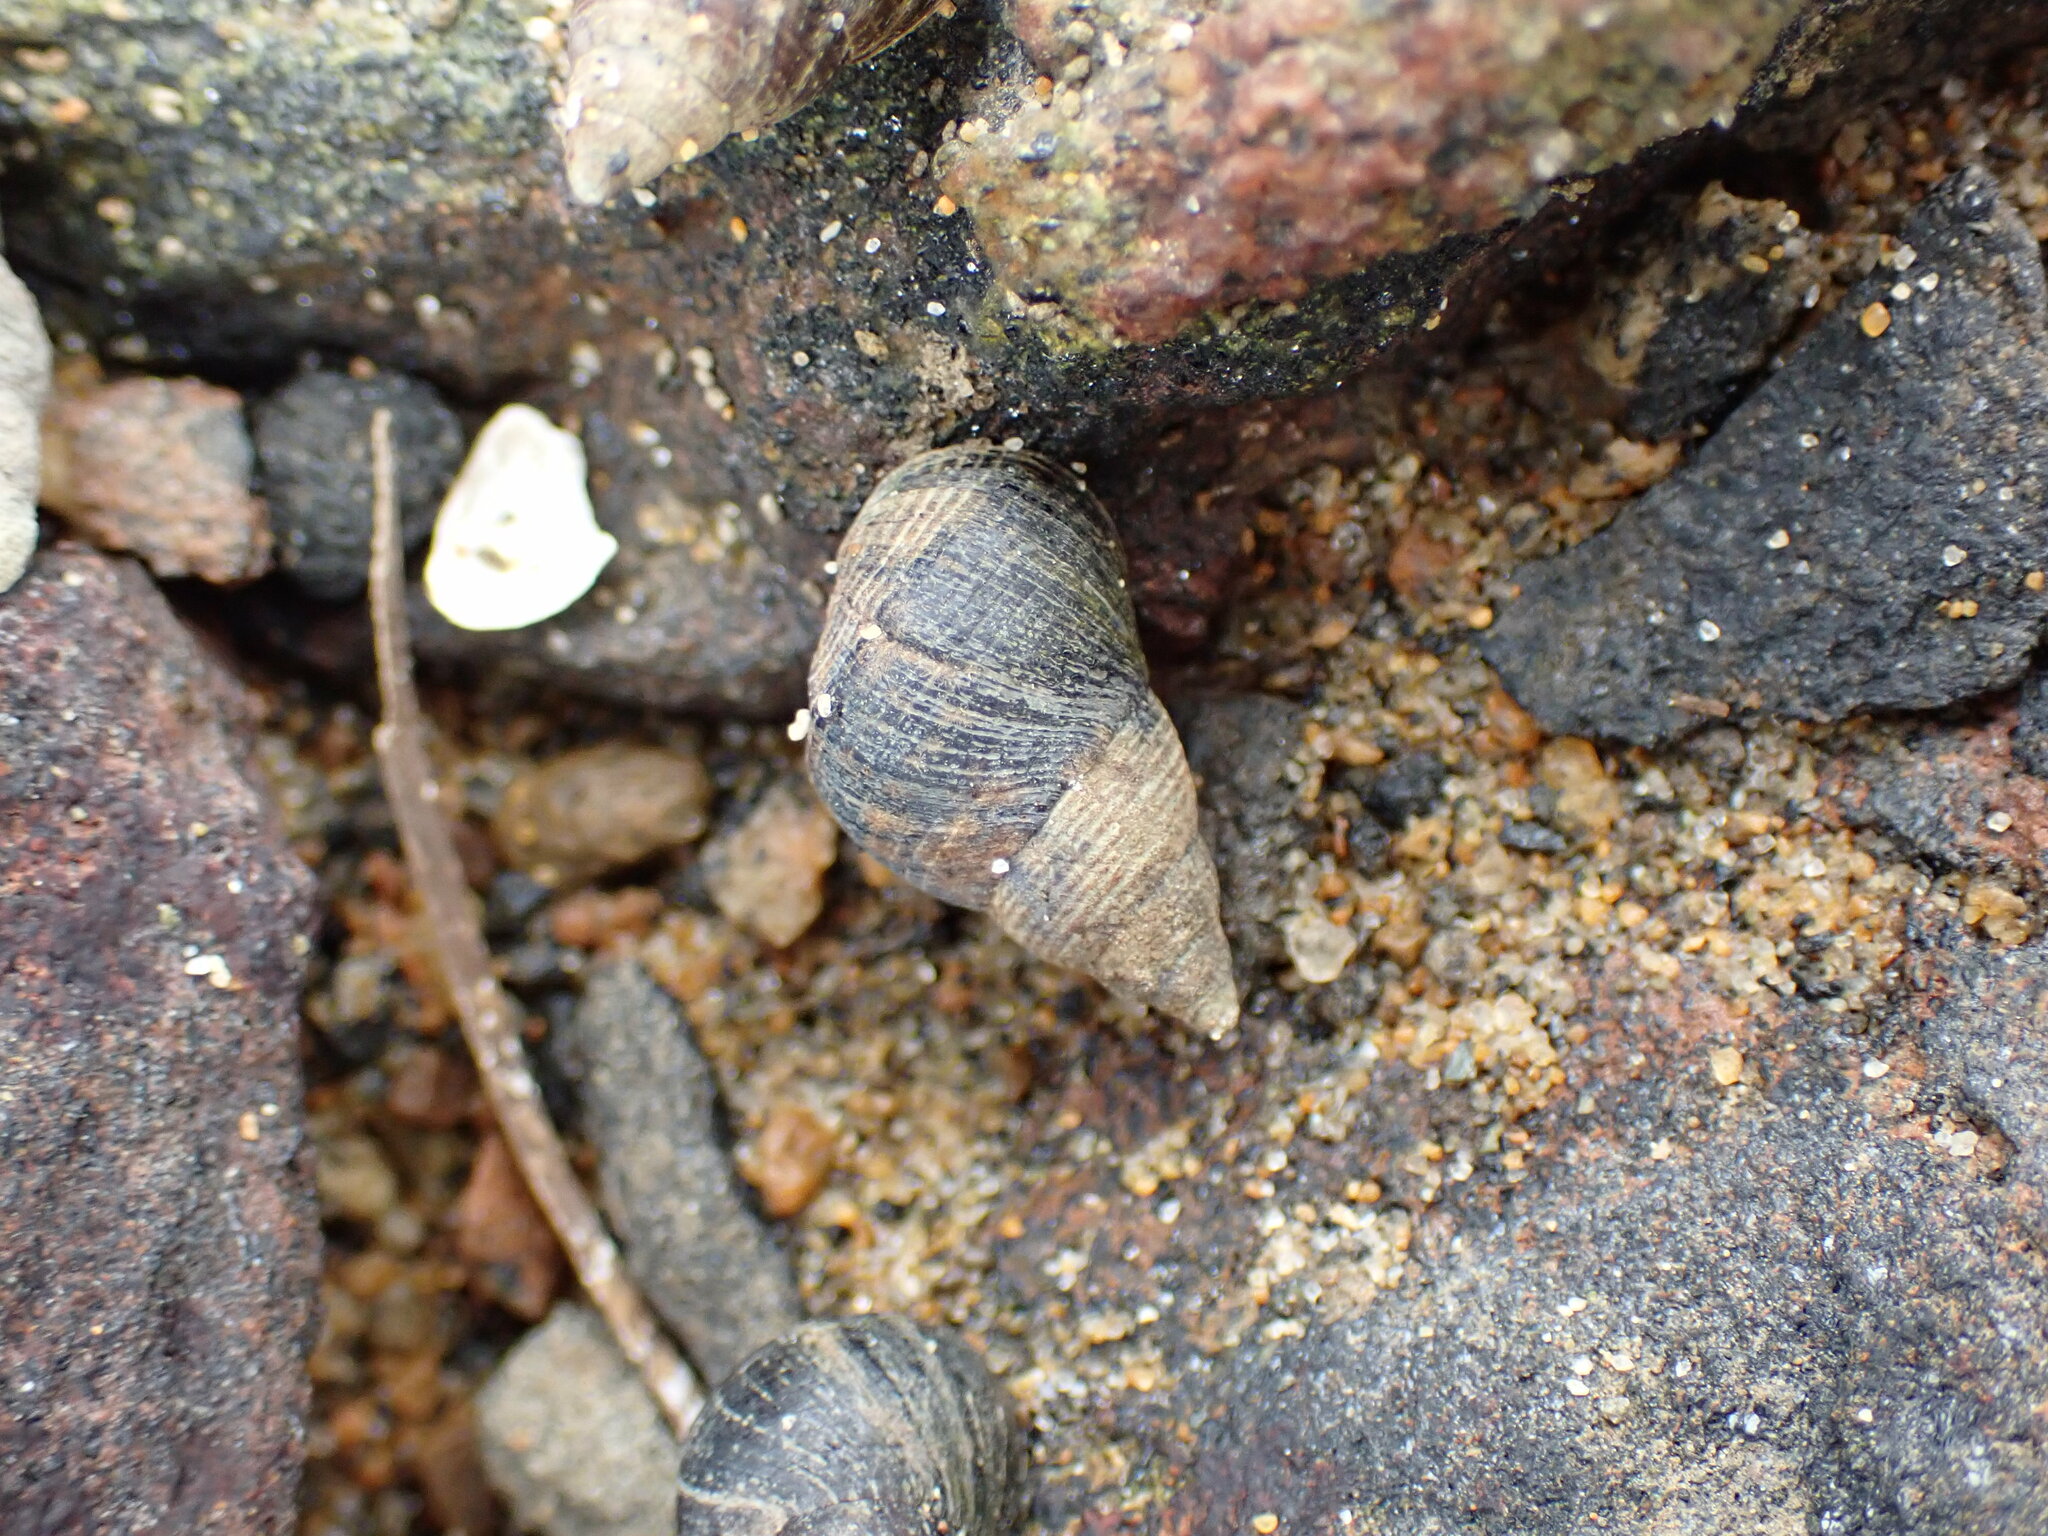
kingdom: Animalia
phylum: Mollusca
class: Gastropoda
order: Littorinimorpha
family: Littorinidae
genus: Austrolittorina
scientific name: Austrolittorina cincta
